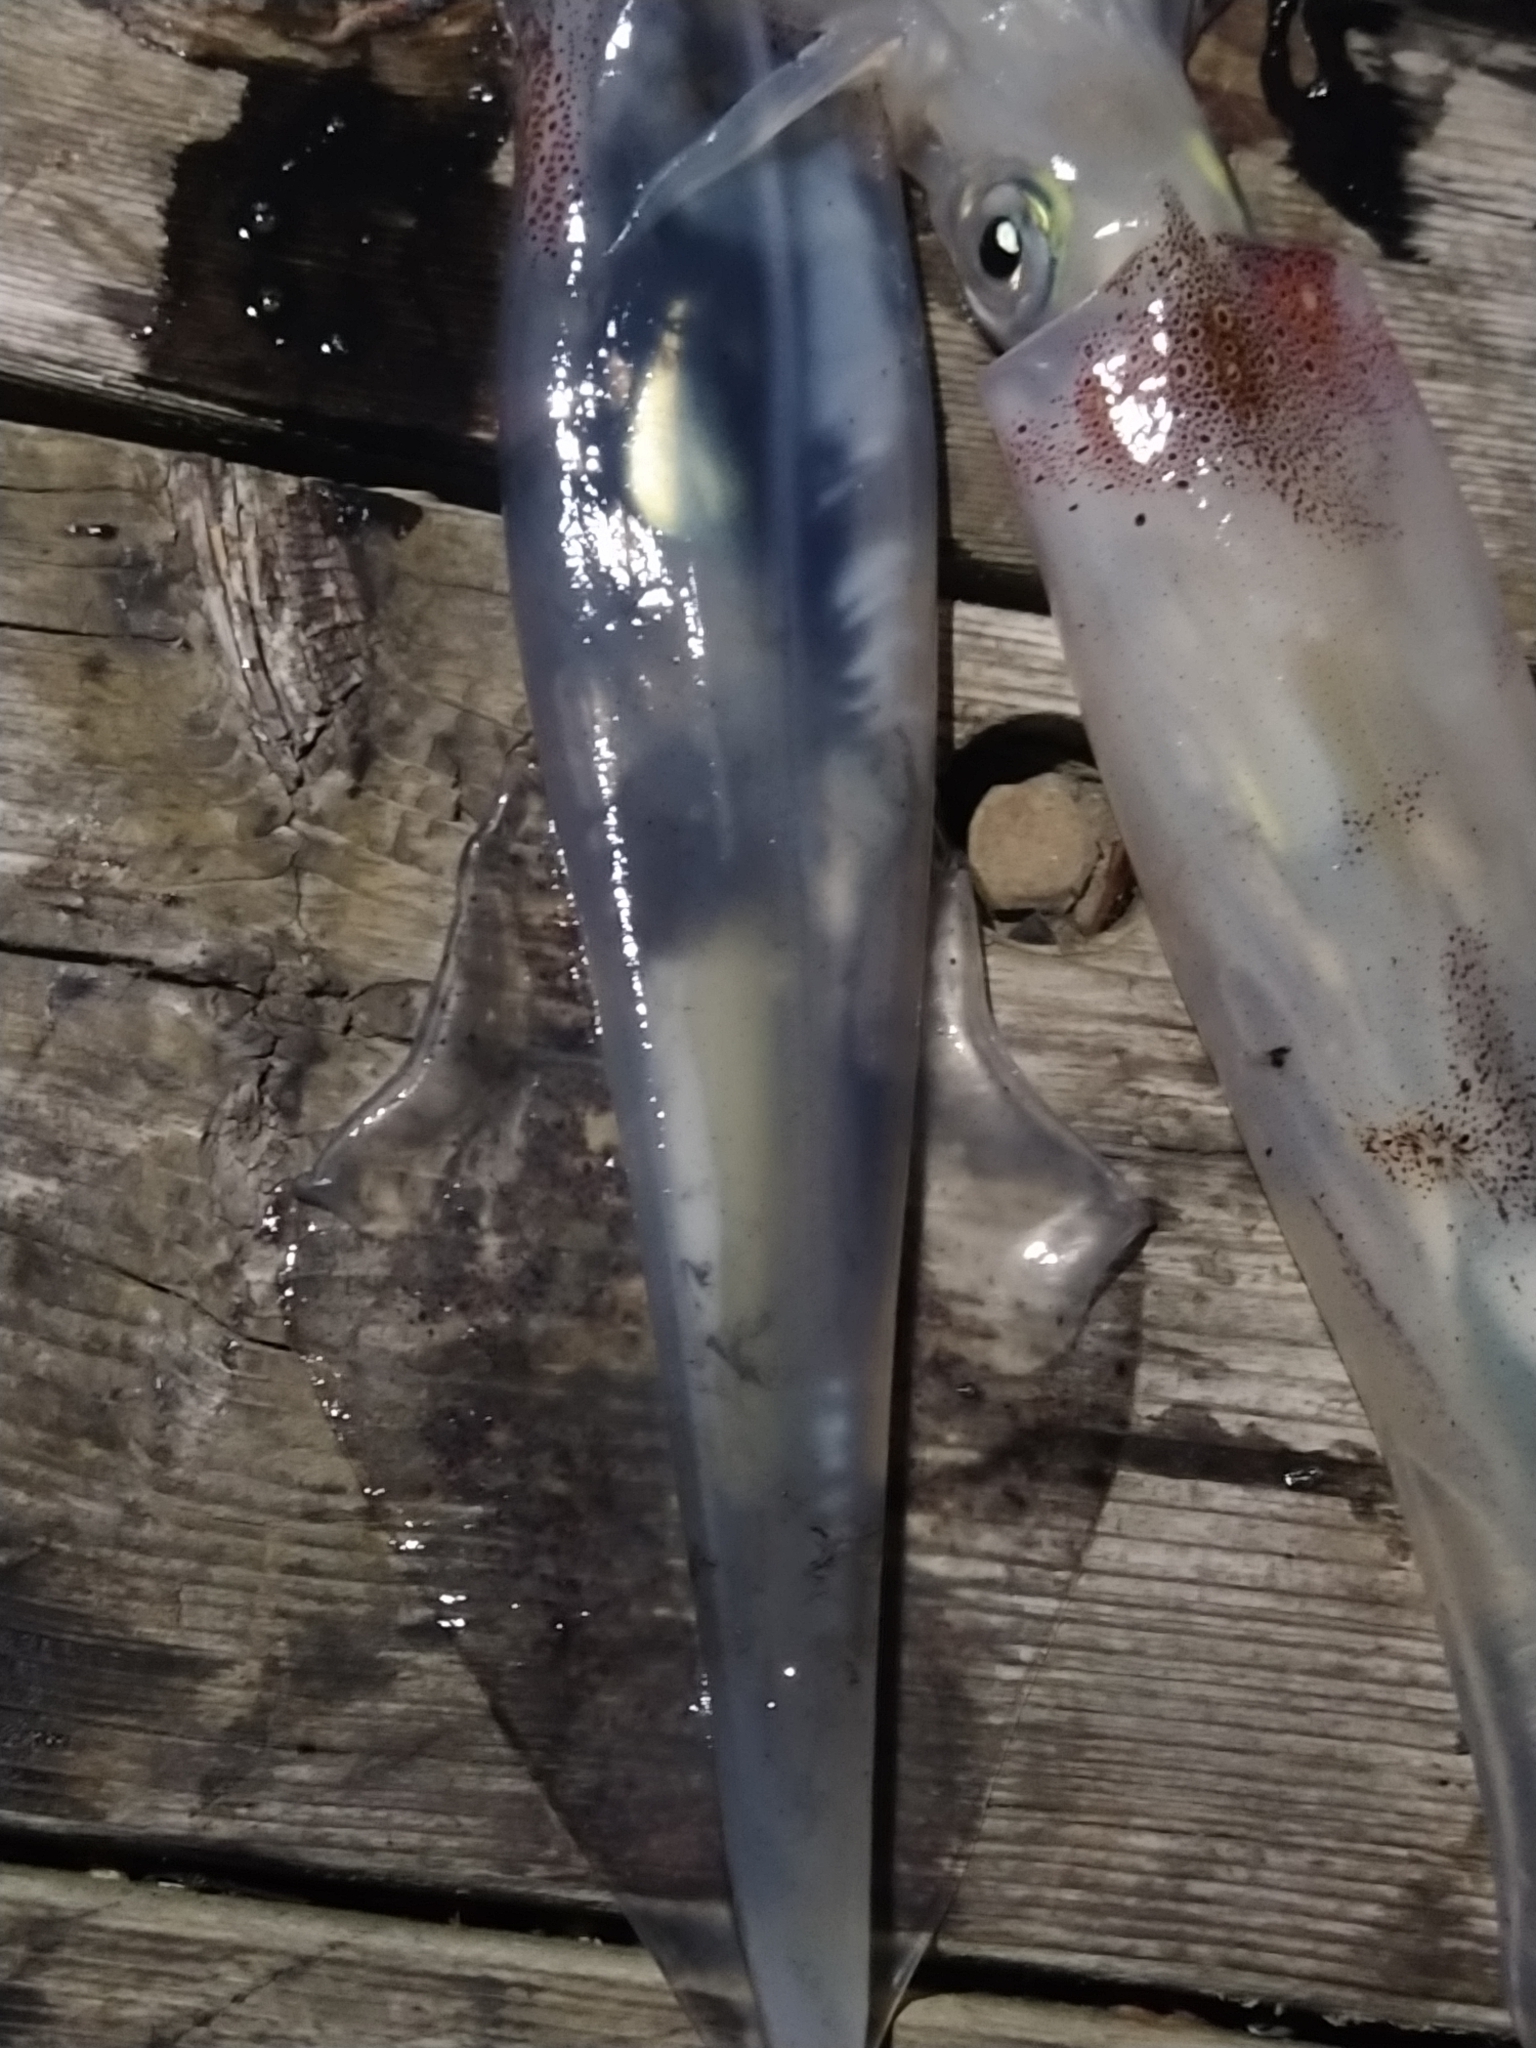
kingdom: Animalia
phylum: Mollusca
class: Cephalopoda
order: Myopsida
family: Loliginidae
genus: Doryteuthis
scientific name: Doryteuthis pealeii
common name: Long-finned inshore squid
